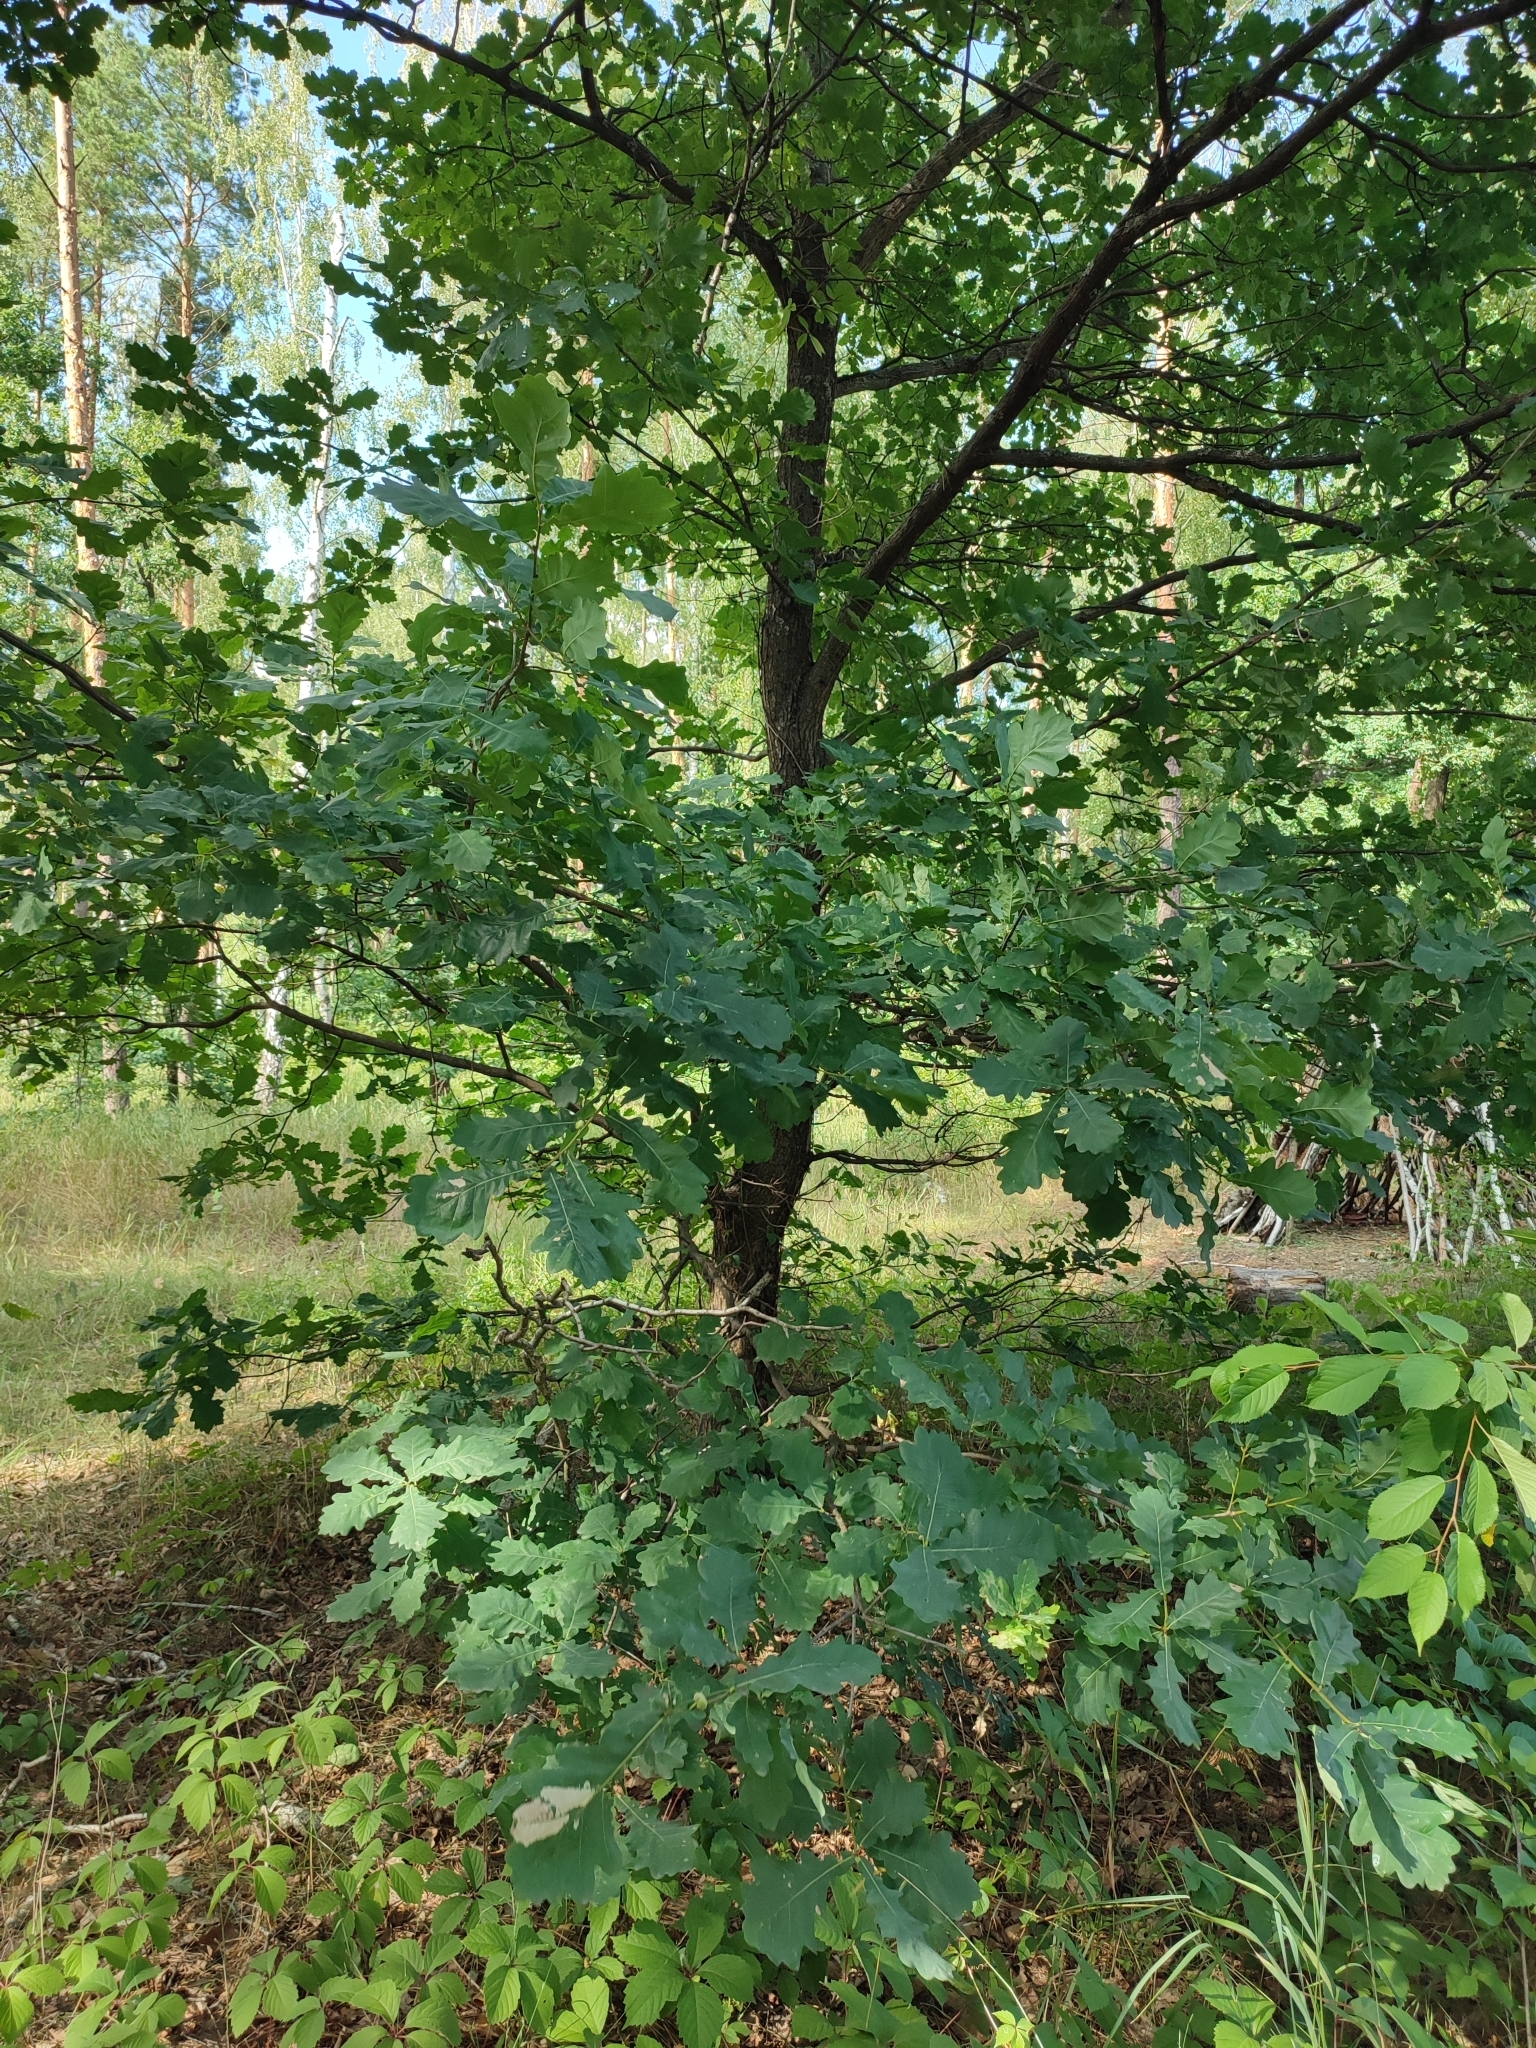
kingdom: Plantae
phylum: Tracheophyta
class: Magnoliopsida
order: Fagales
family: Fagaceae
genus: Quercus
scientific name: Quercus robur
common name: Pedunculate oak
